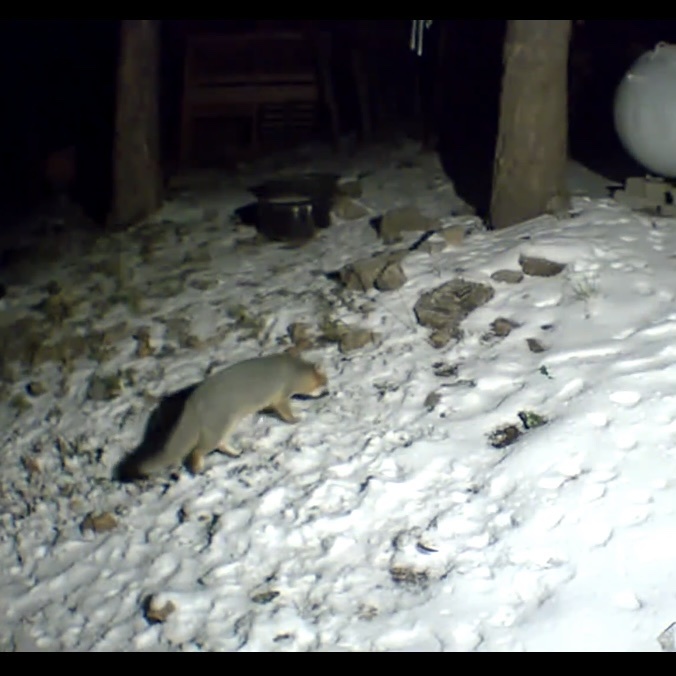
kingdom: Animalia
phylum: Chordata
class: Mammalia
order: Carnivora
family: Canidae
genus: Urocyon
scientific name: Urocyon cinereoargenteus
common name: Gray fox
